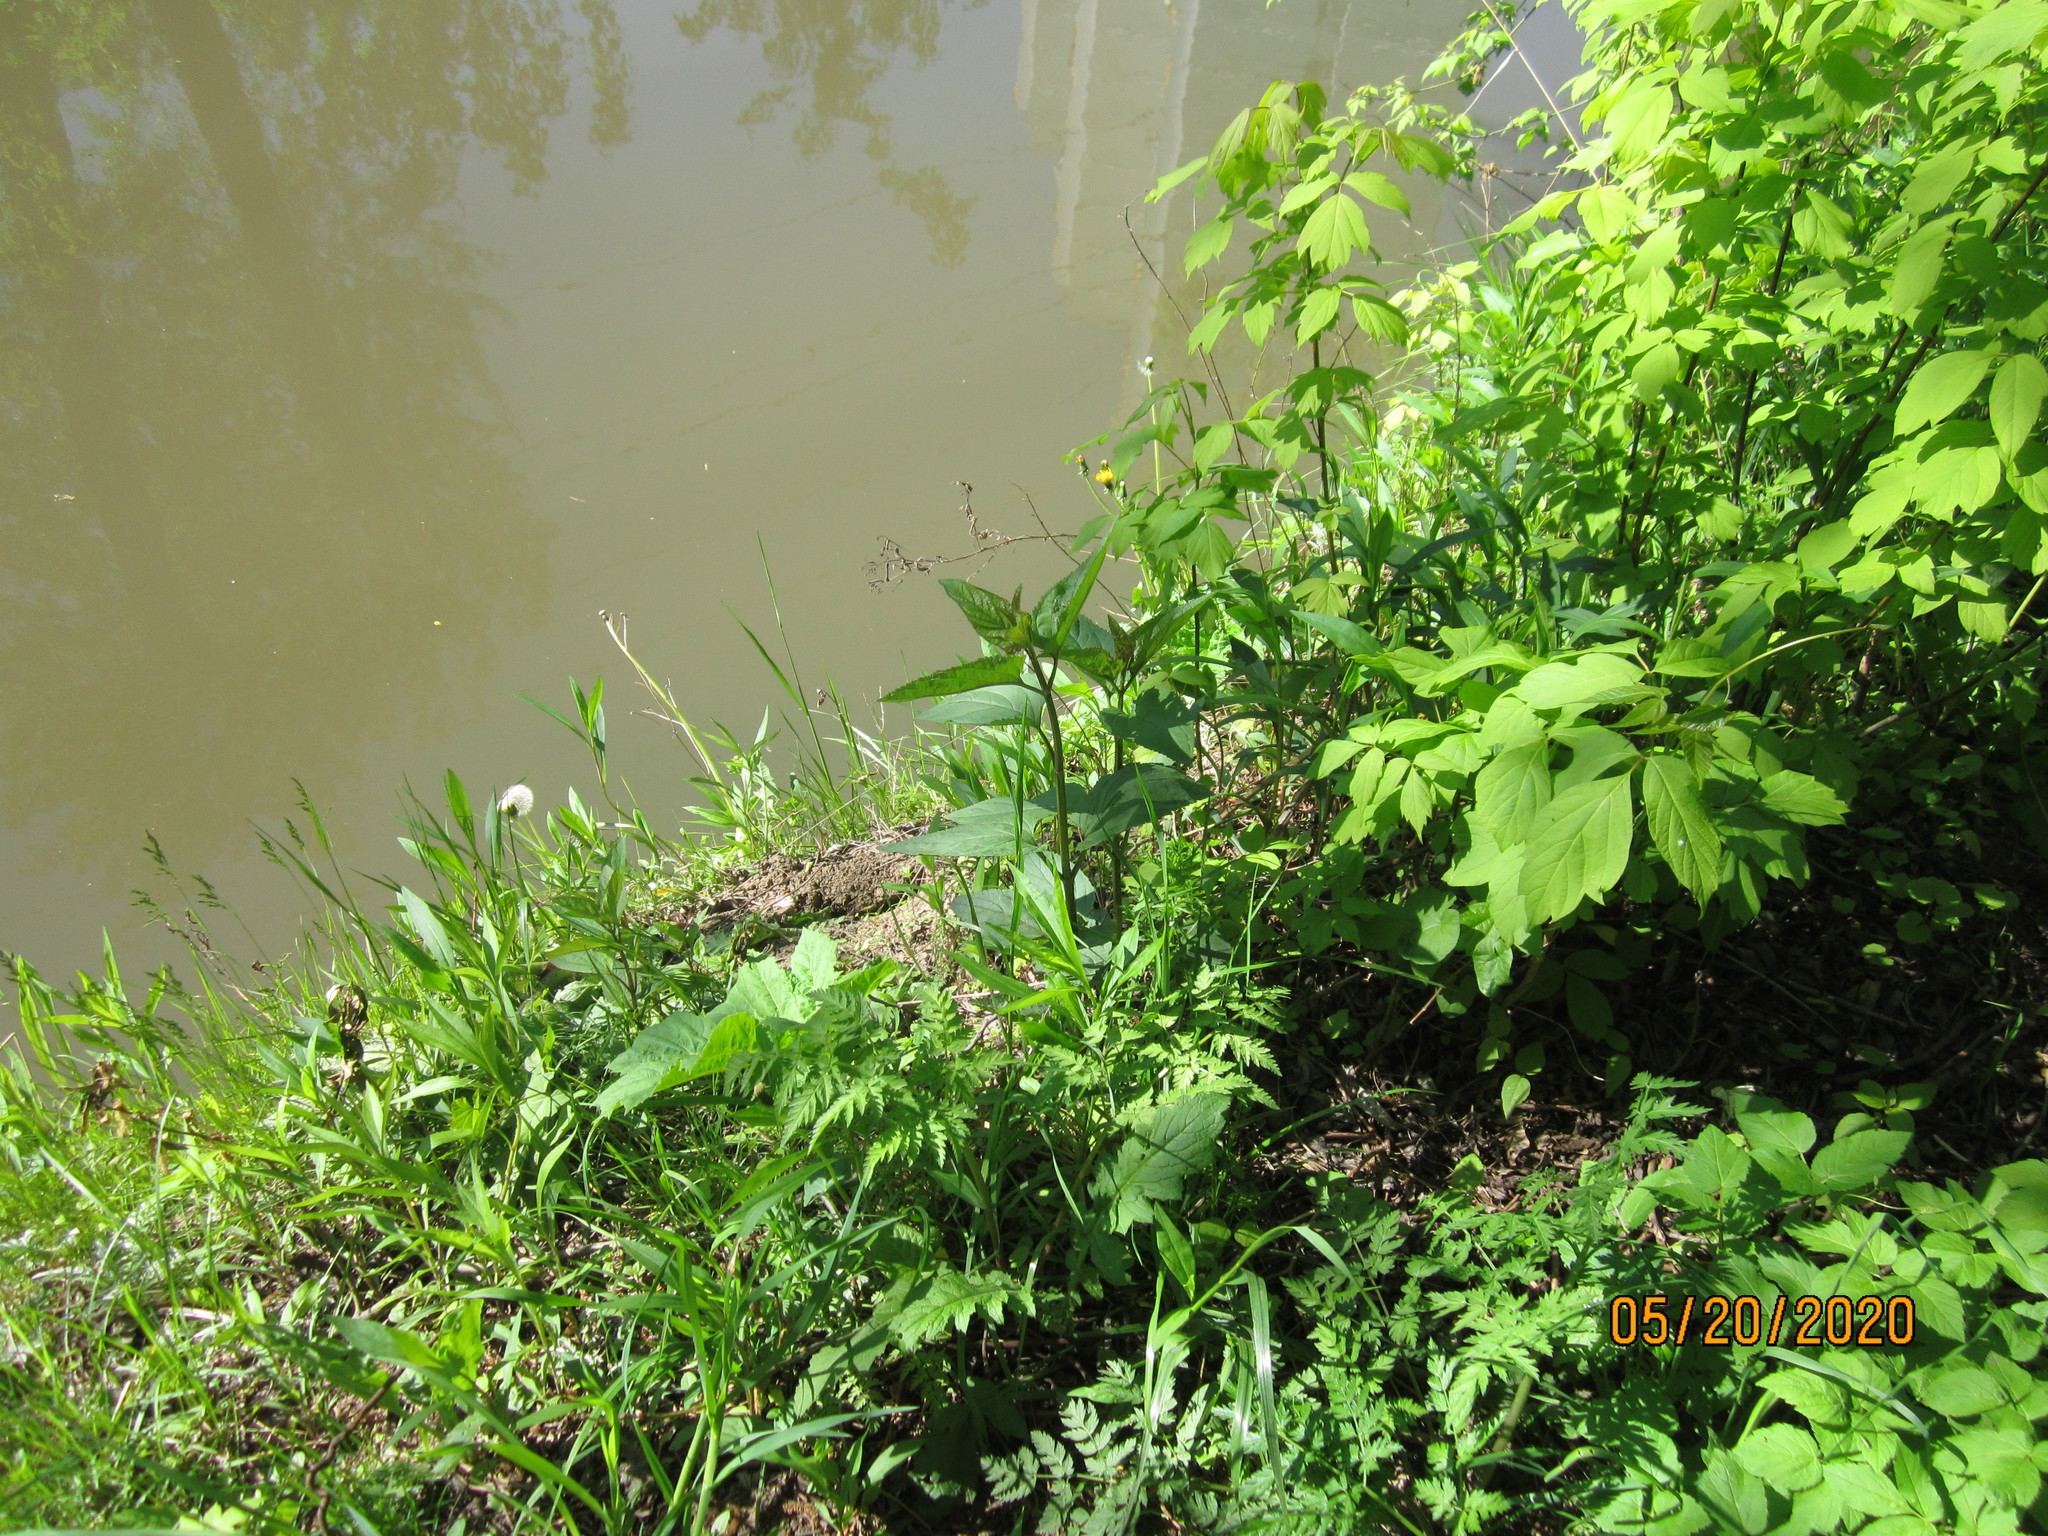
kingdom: Plantae
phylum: Tracheophyta
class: Magnoliopsida
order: Lamiales
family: Scrophulariaceae
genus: Scrophularia
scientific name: Scrophularia nodosa
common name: Common figwort
